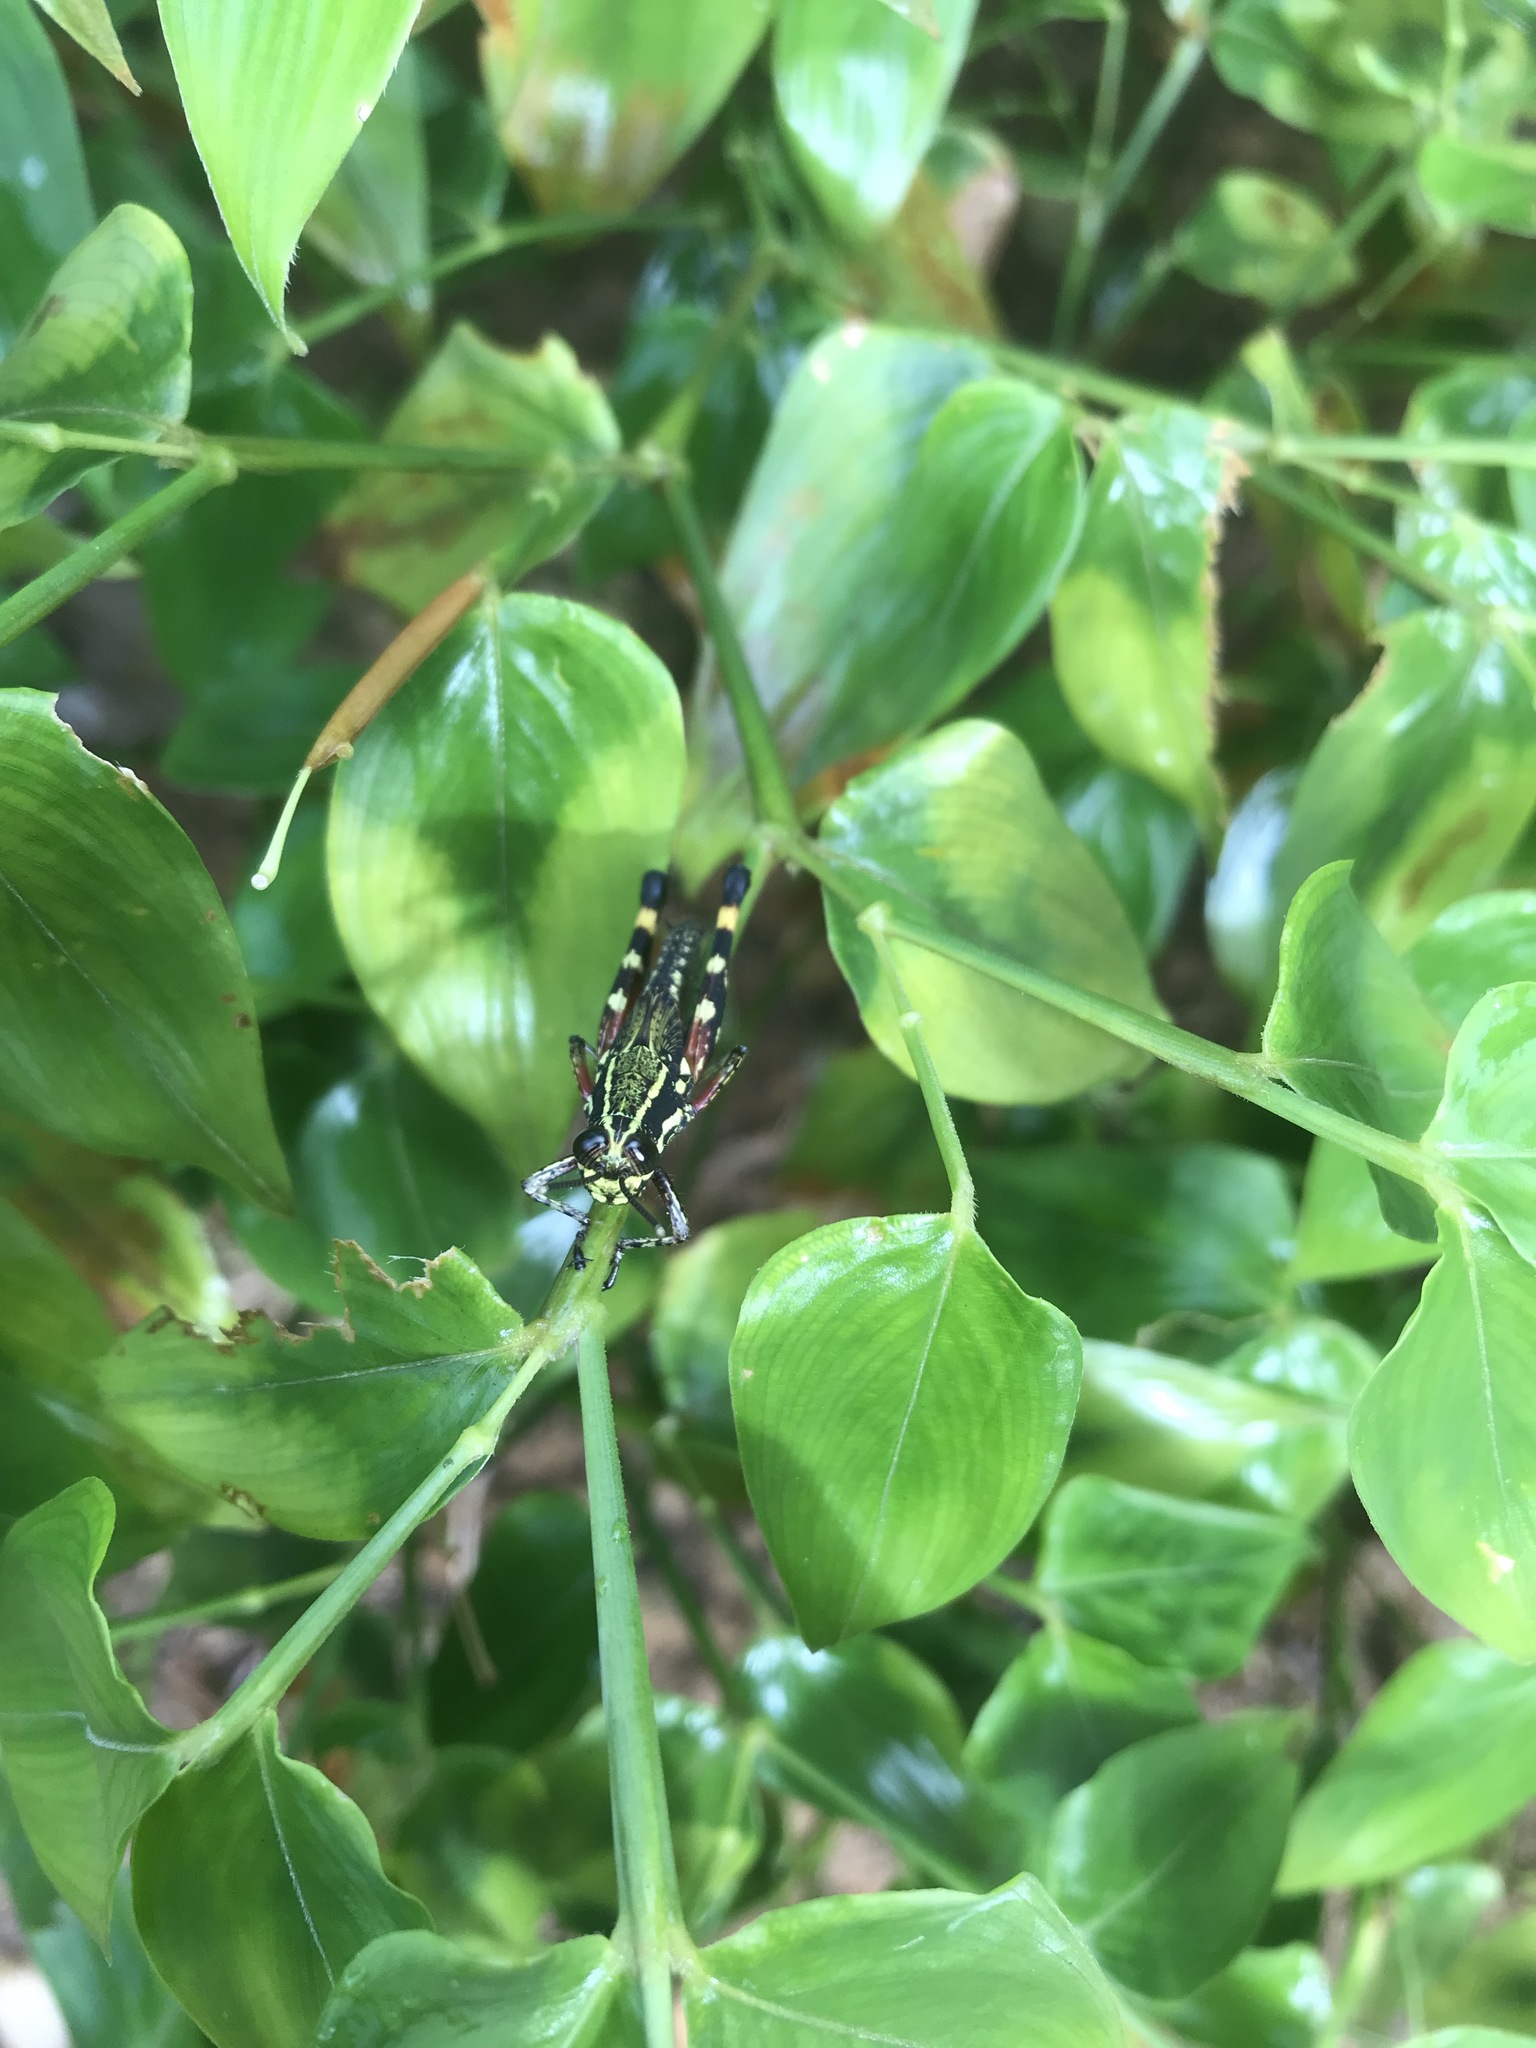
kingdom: Animalia
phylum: Arthropoda
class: Insecta
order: Orthoptera
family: Acrididae
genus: Tetrataenia
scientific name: Tetrataenia surinama
